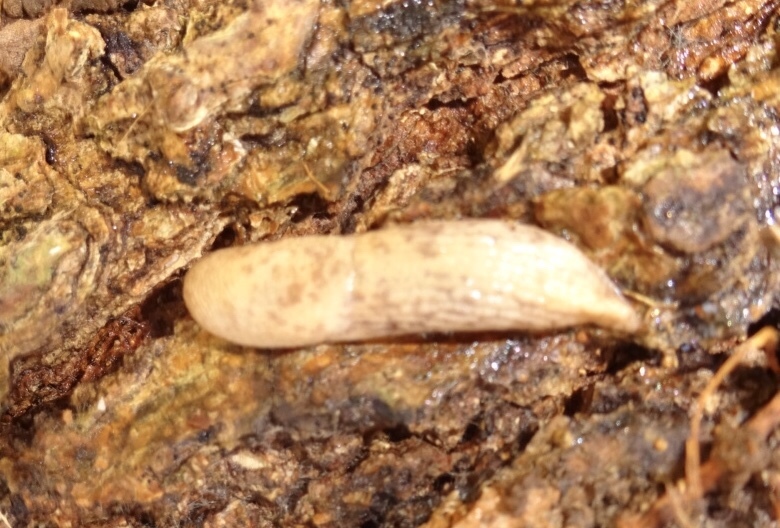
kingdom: Animalia
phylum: Mollusca
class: Gastropoda
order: Stylommatophora
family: Agriolimacidae
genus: Deroceras
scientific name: Deroceras reticulatum
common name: Gray field slug
